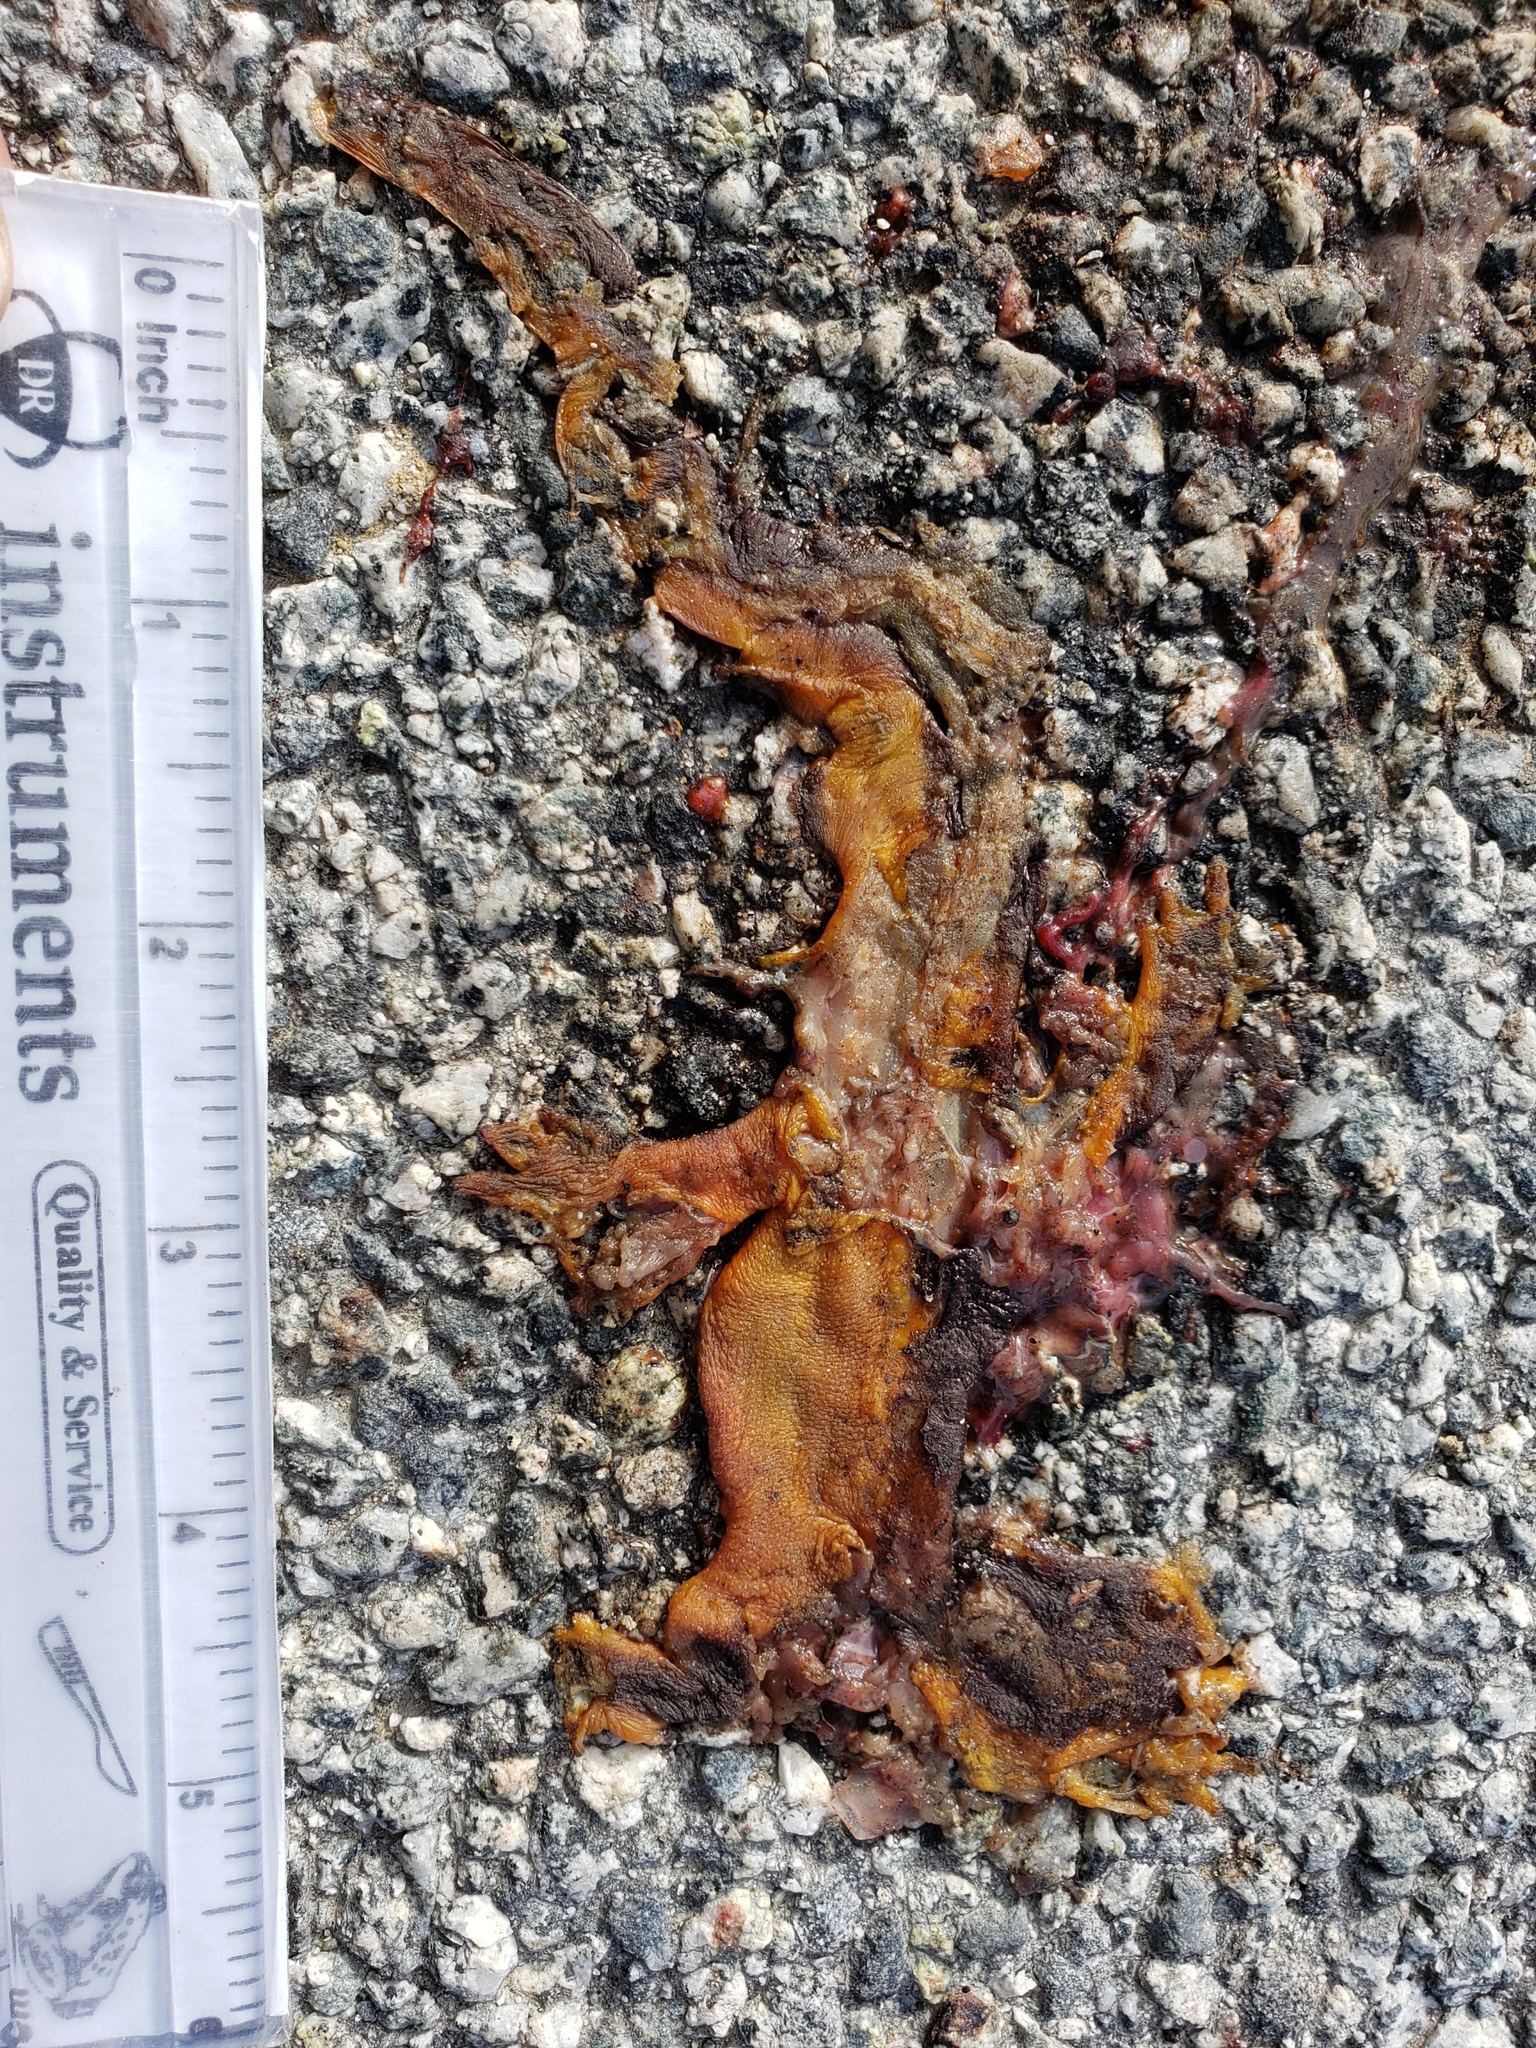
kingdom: Animalia
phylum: Chordata
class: Amphibia
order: Caudata
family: Salamandridae
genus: Taricha
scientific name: Taricha
